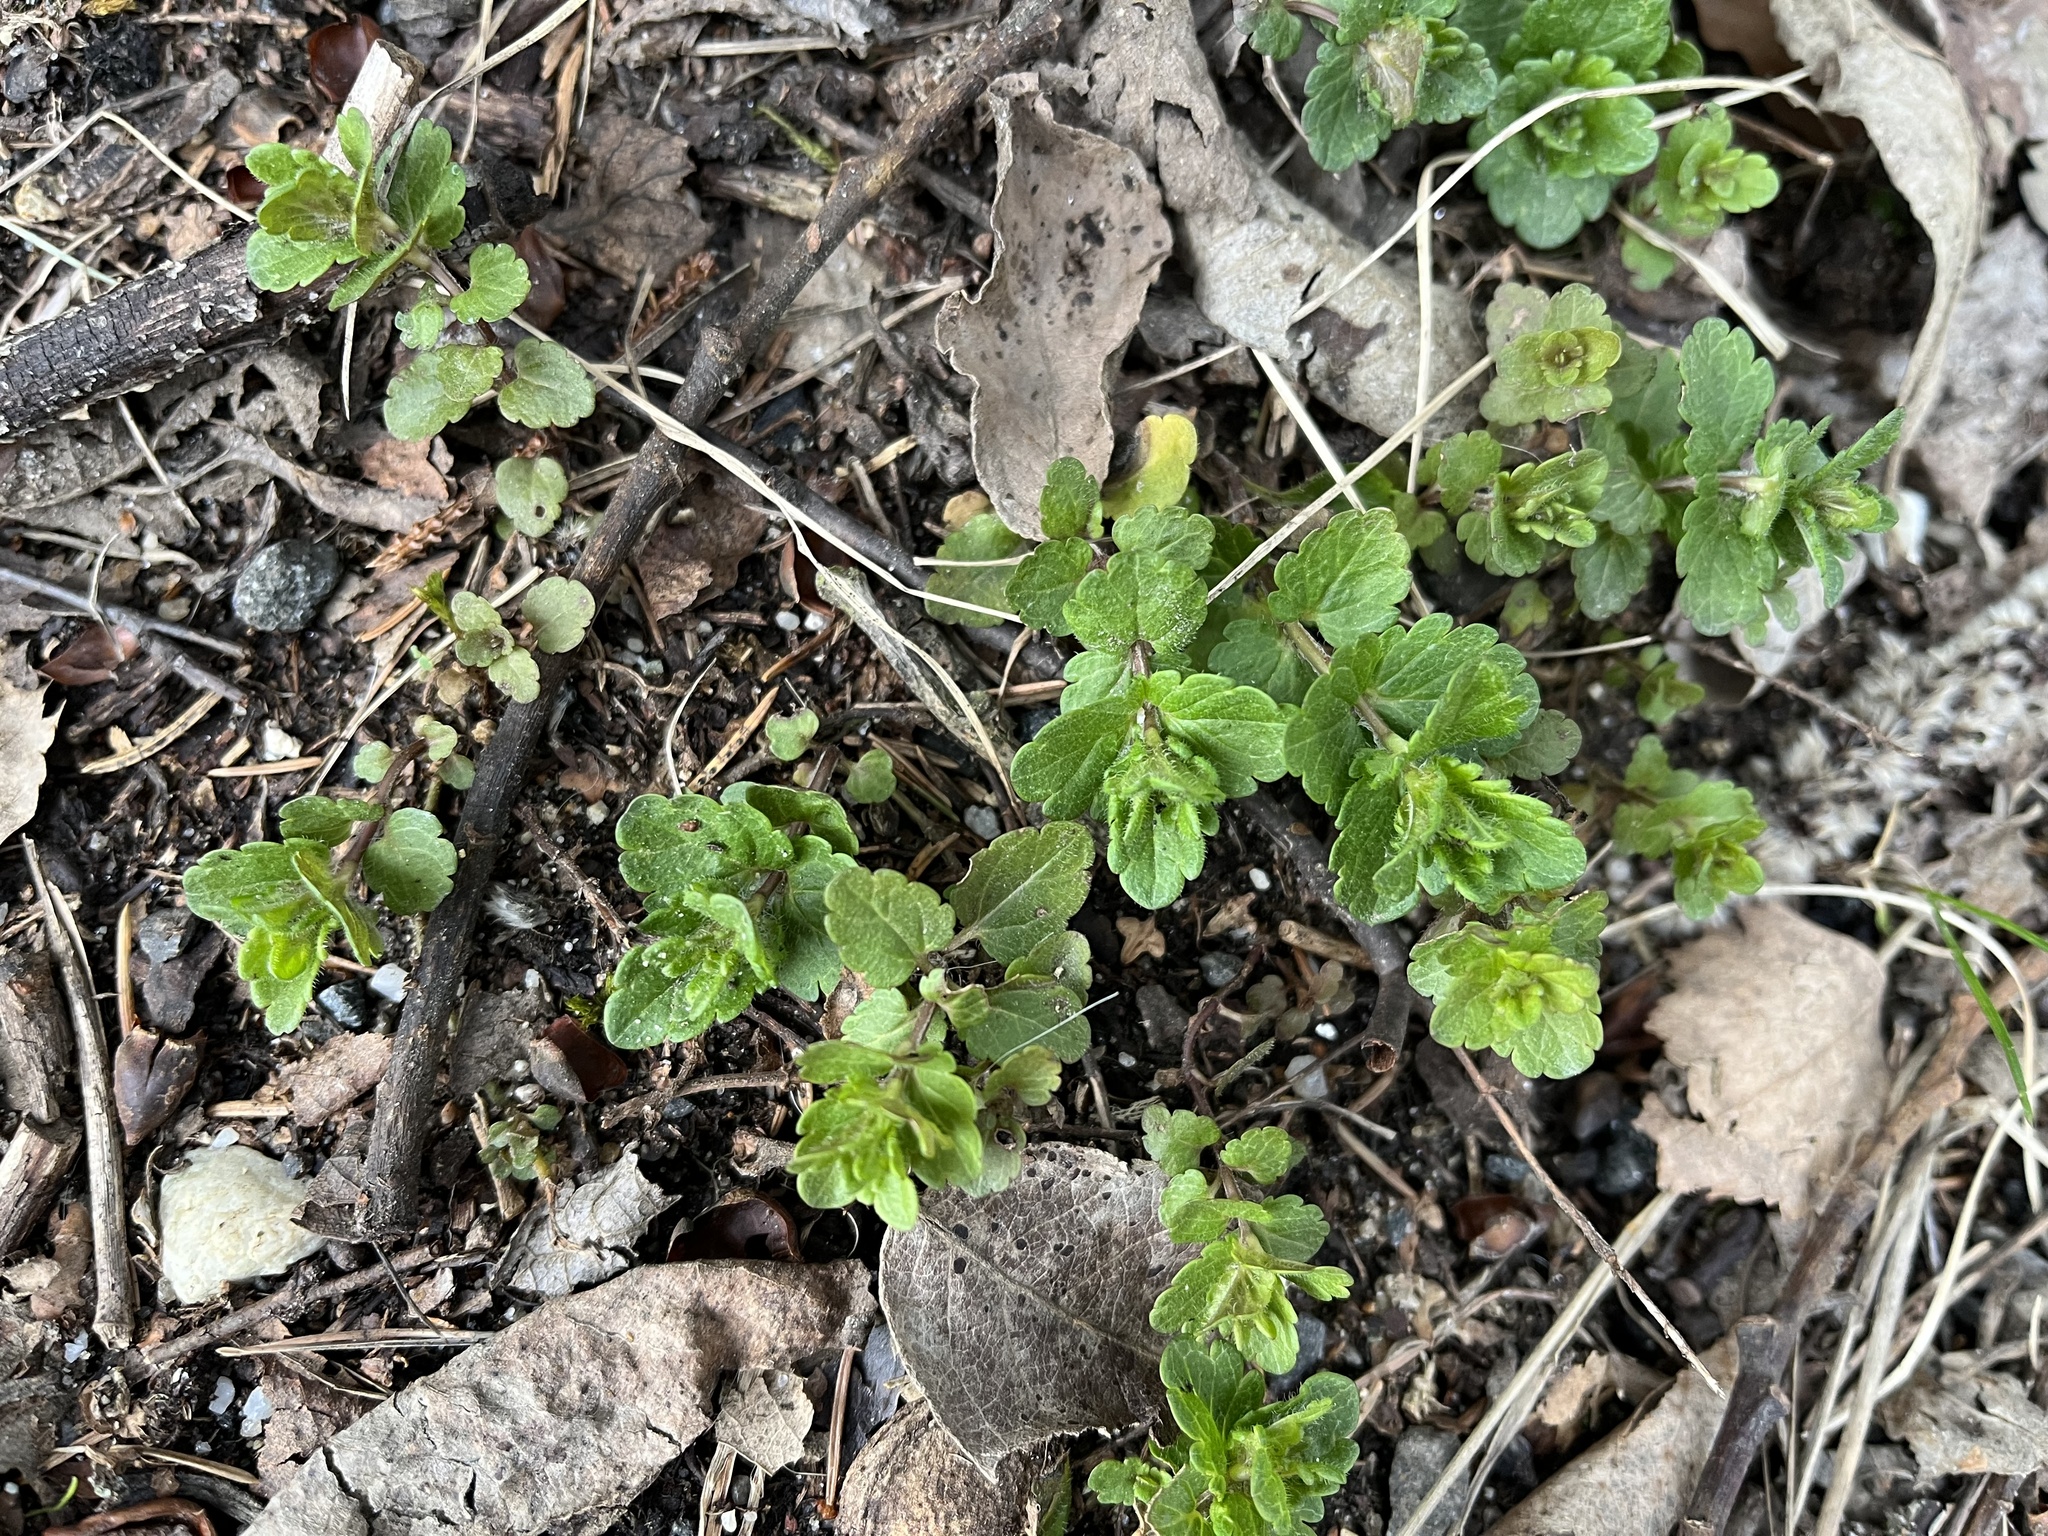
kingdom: Plantae
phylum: Tracheophyta
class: Magnoliopsida
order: Lamiales
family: Plantaginaceae
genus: Veronica
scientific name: Veronica chamaedrys
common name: Germander speedwell
